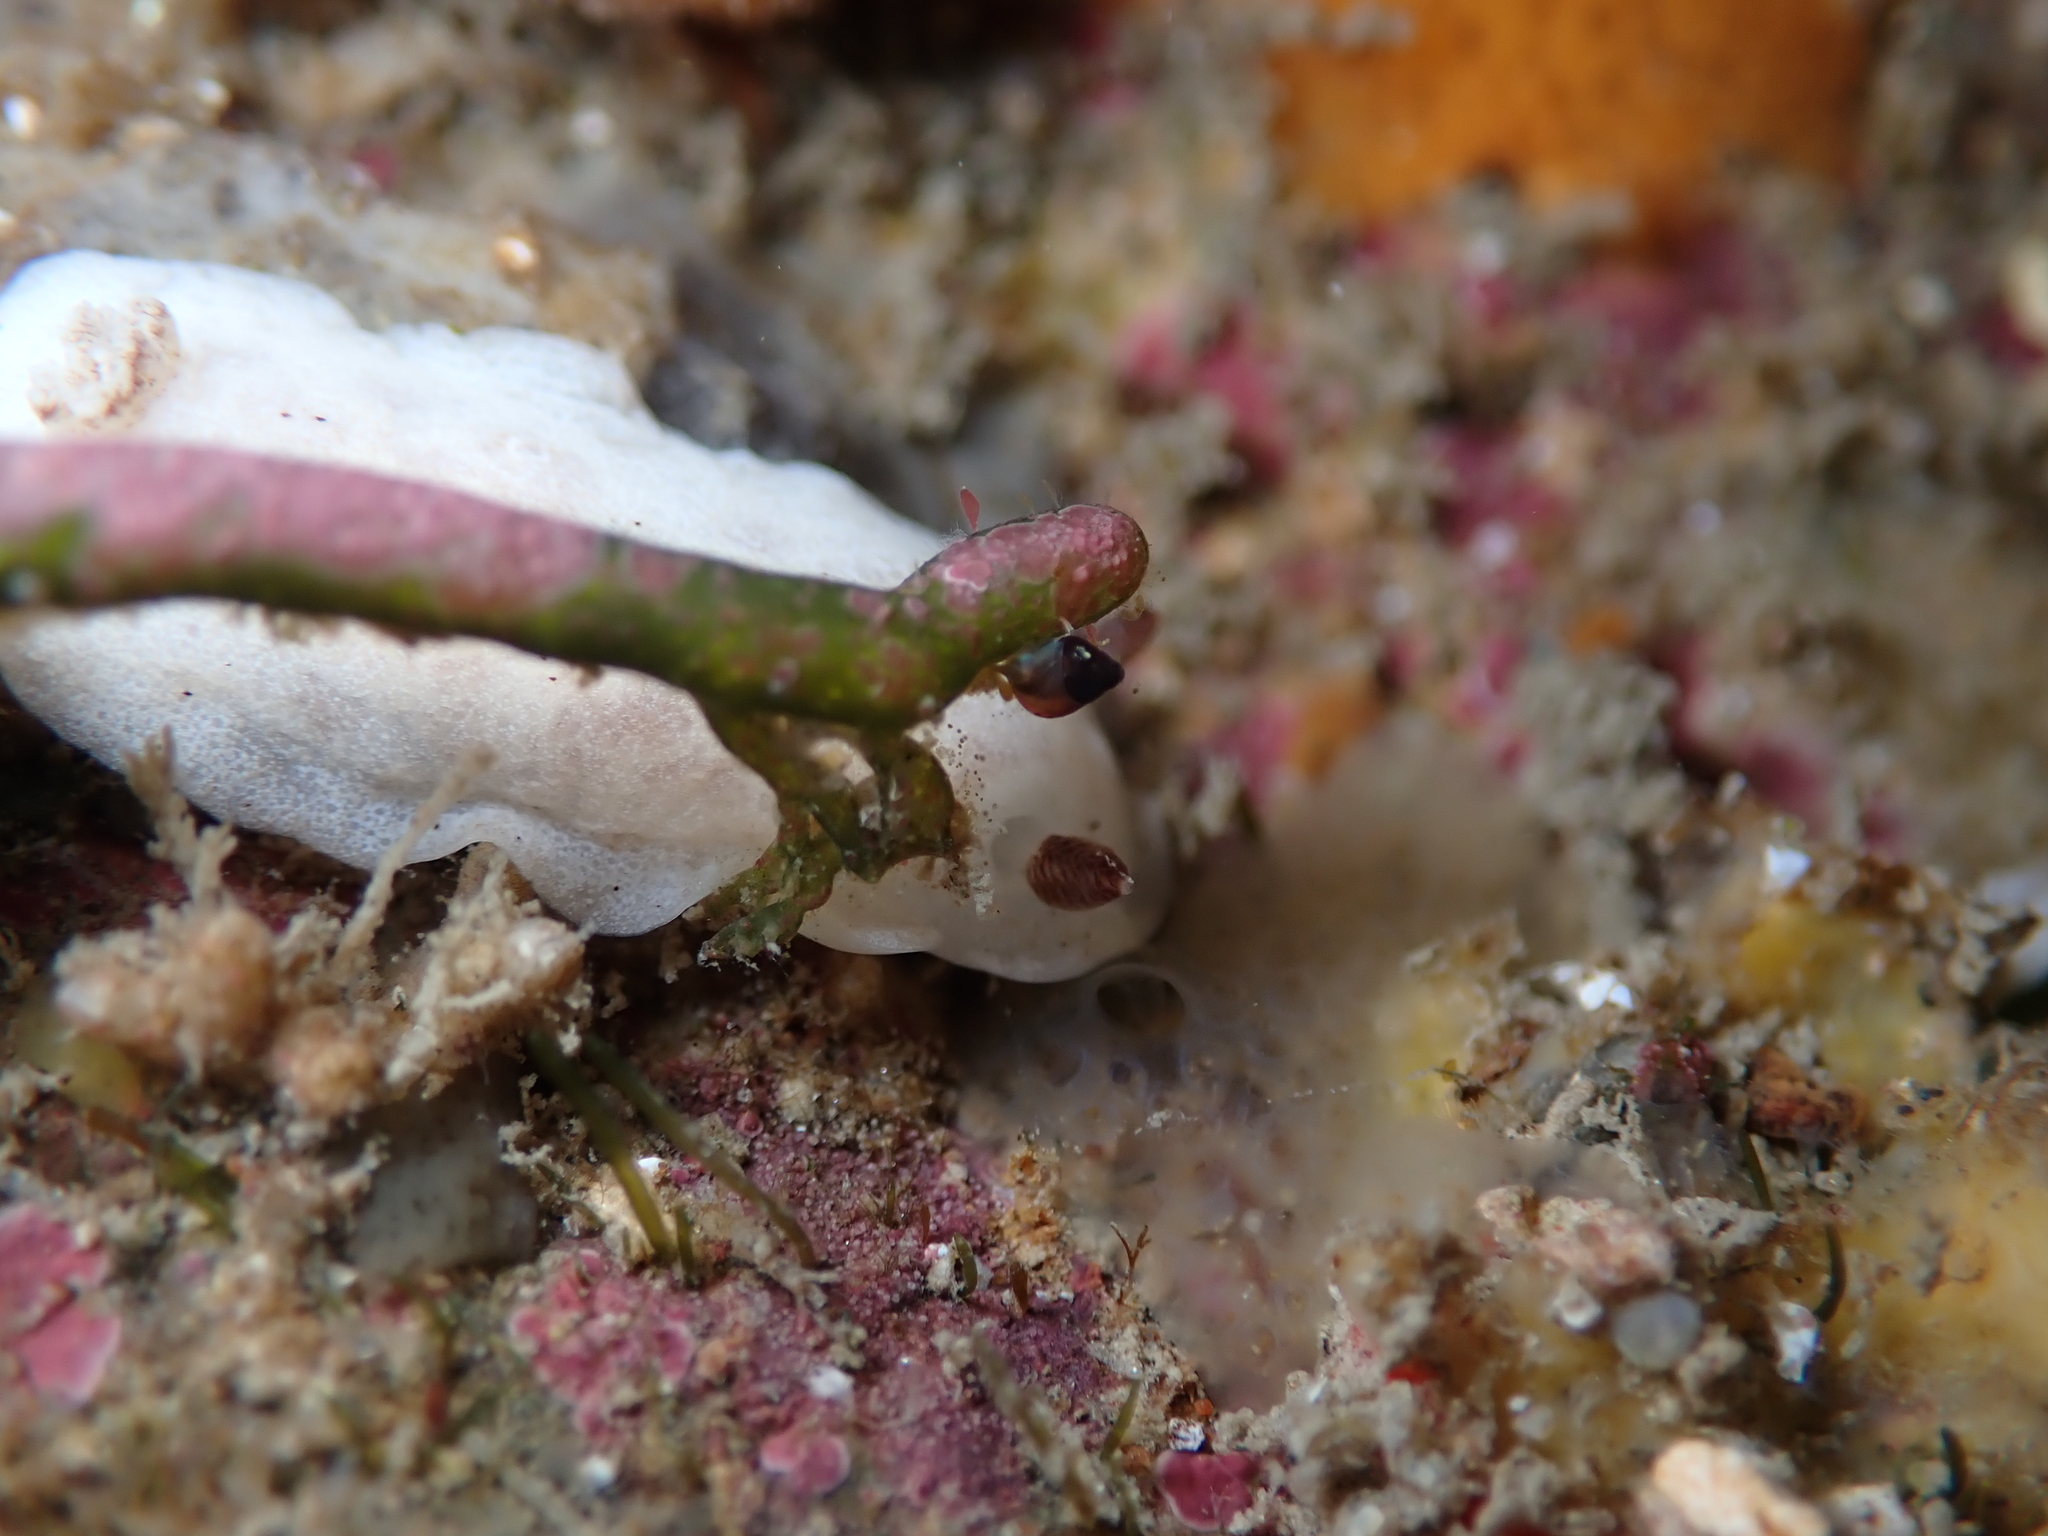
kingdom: Animalia
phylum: Mollusca
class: Gastropoda
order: Nudibranchia
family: Discodorididae
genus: Paradoris
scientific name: Paradoris dubia
